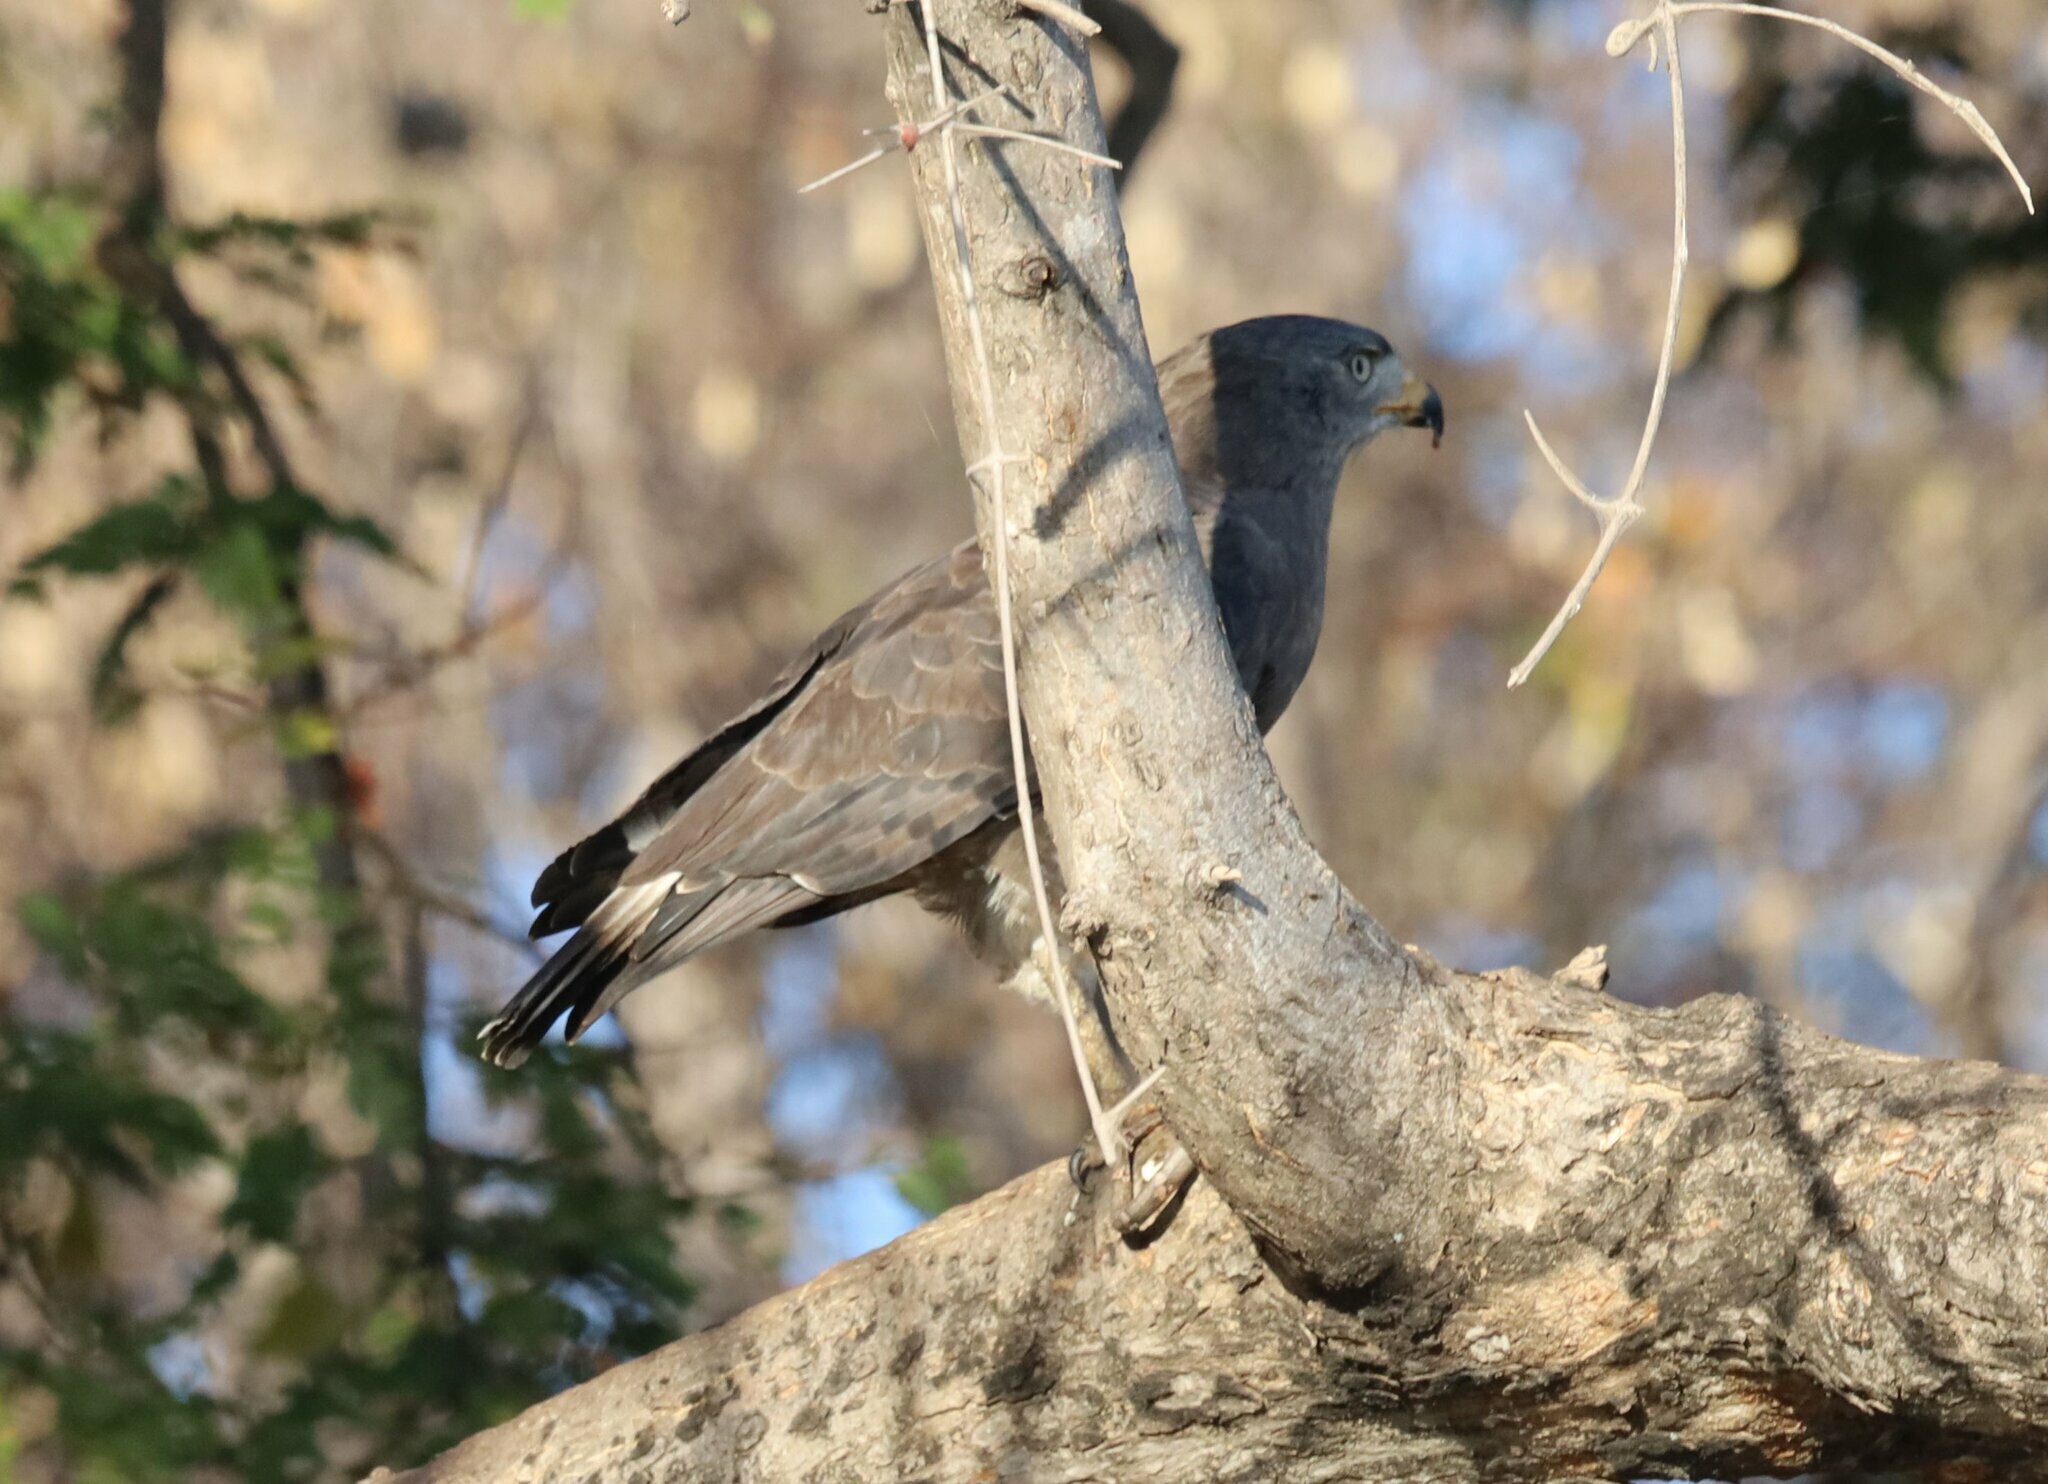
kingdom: Animalia
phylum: Chordata
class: Aves
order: Accipitriformes
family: Accipitridae
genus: Circaetus
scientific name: Circaetus cinerascens
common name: Western banded snake eagle
